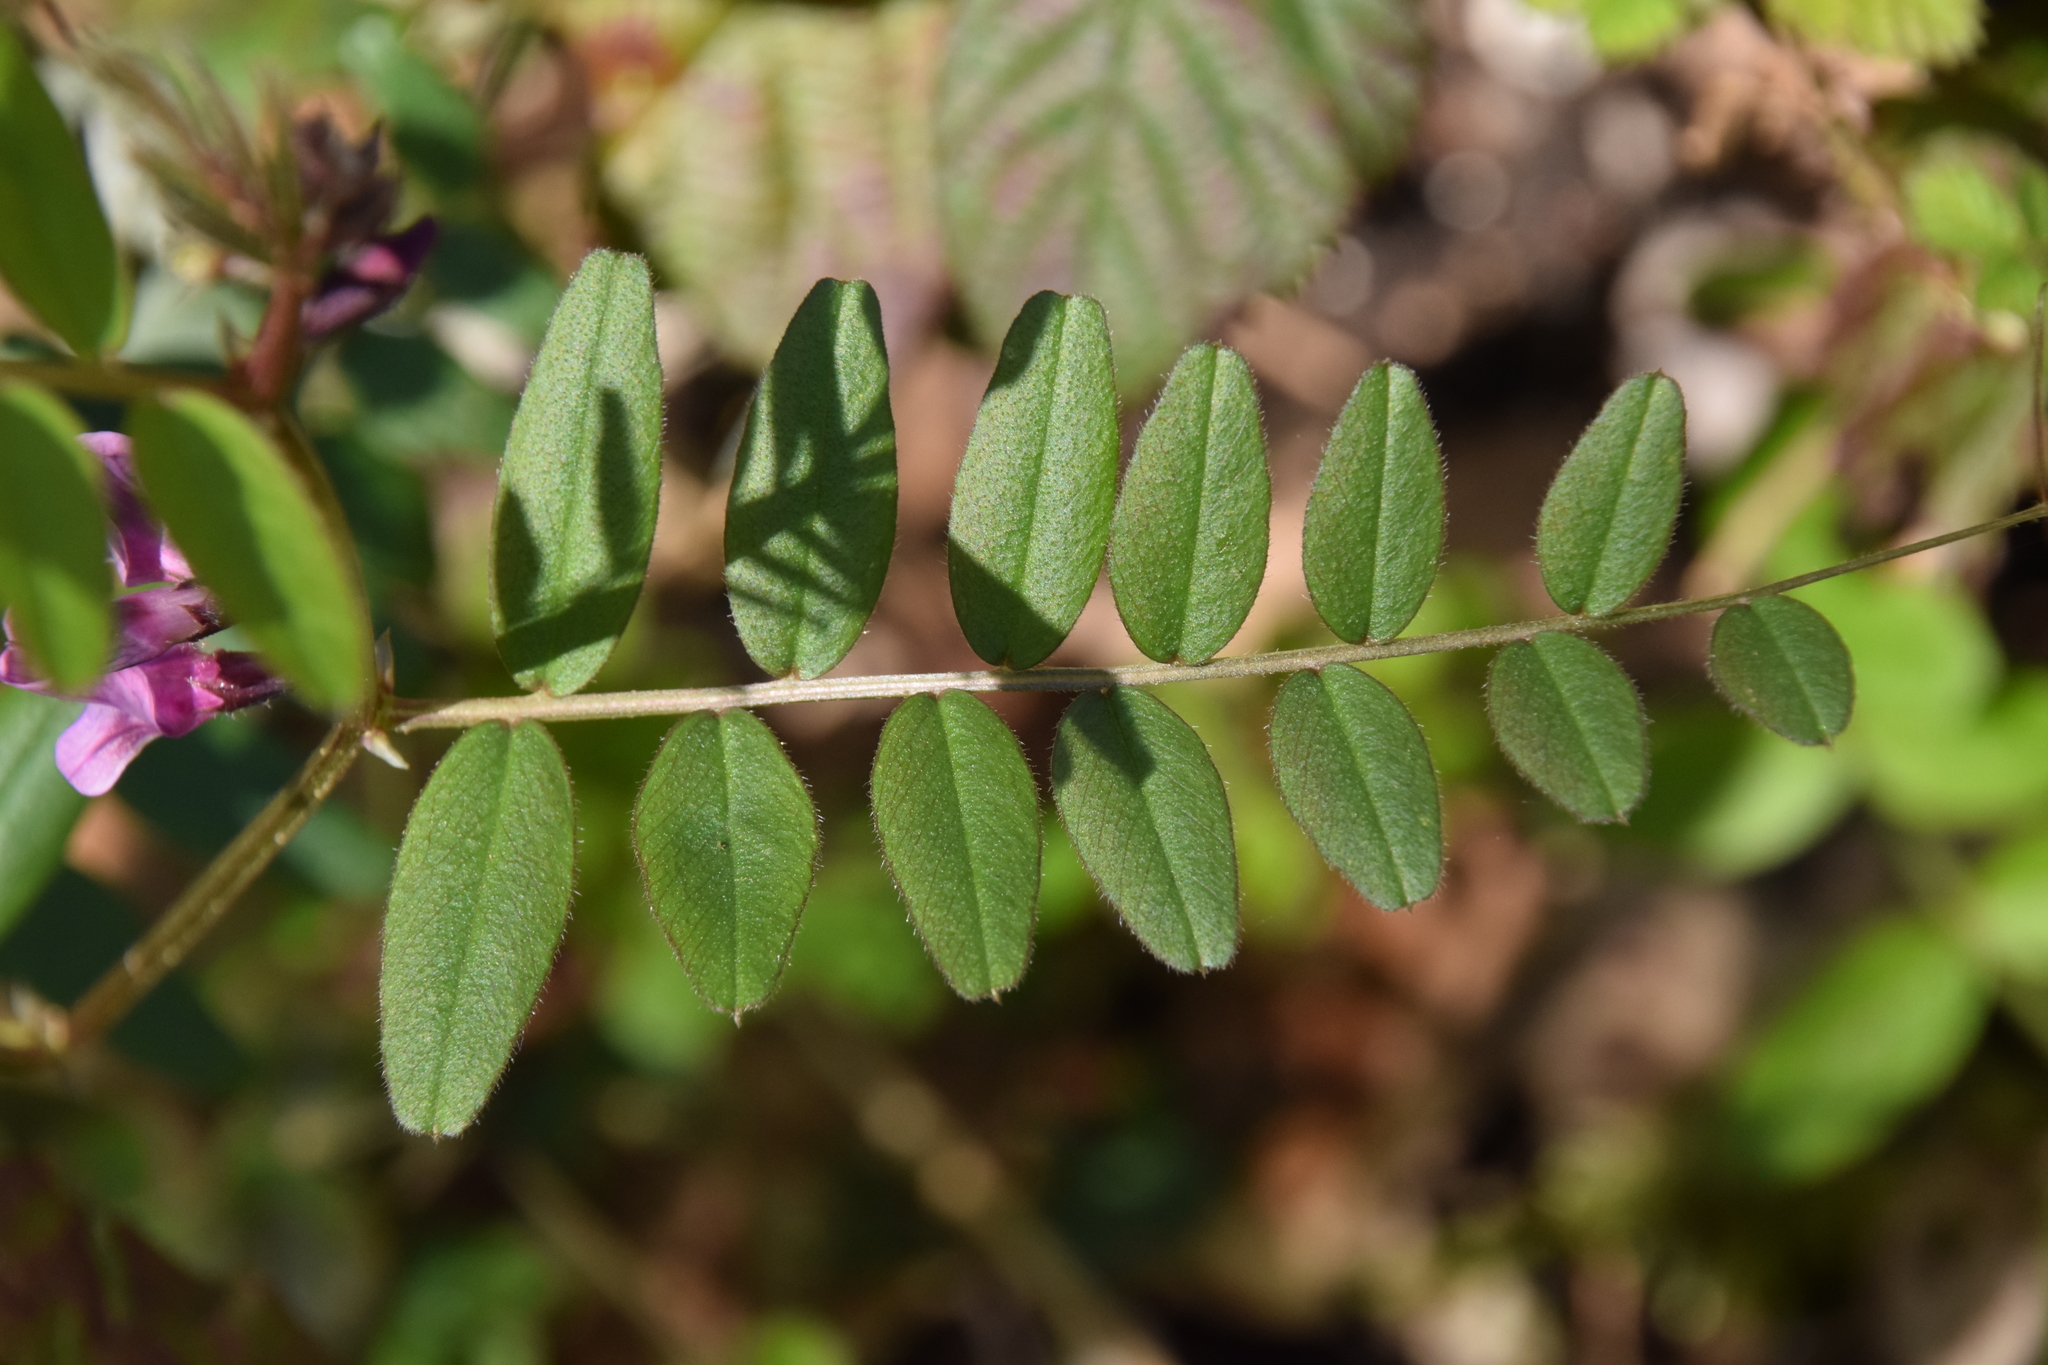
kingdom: Plantae
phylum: Tracheophyta
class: Magnoliopsida
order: Fabales
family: Fabaceae
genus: Vicia
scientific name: Vicia sepium
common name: Bush vetch
